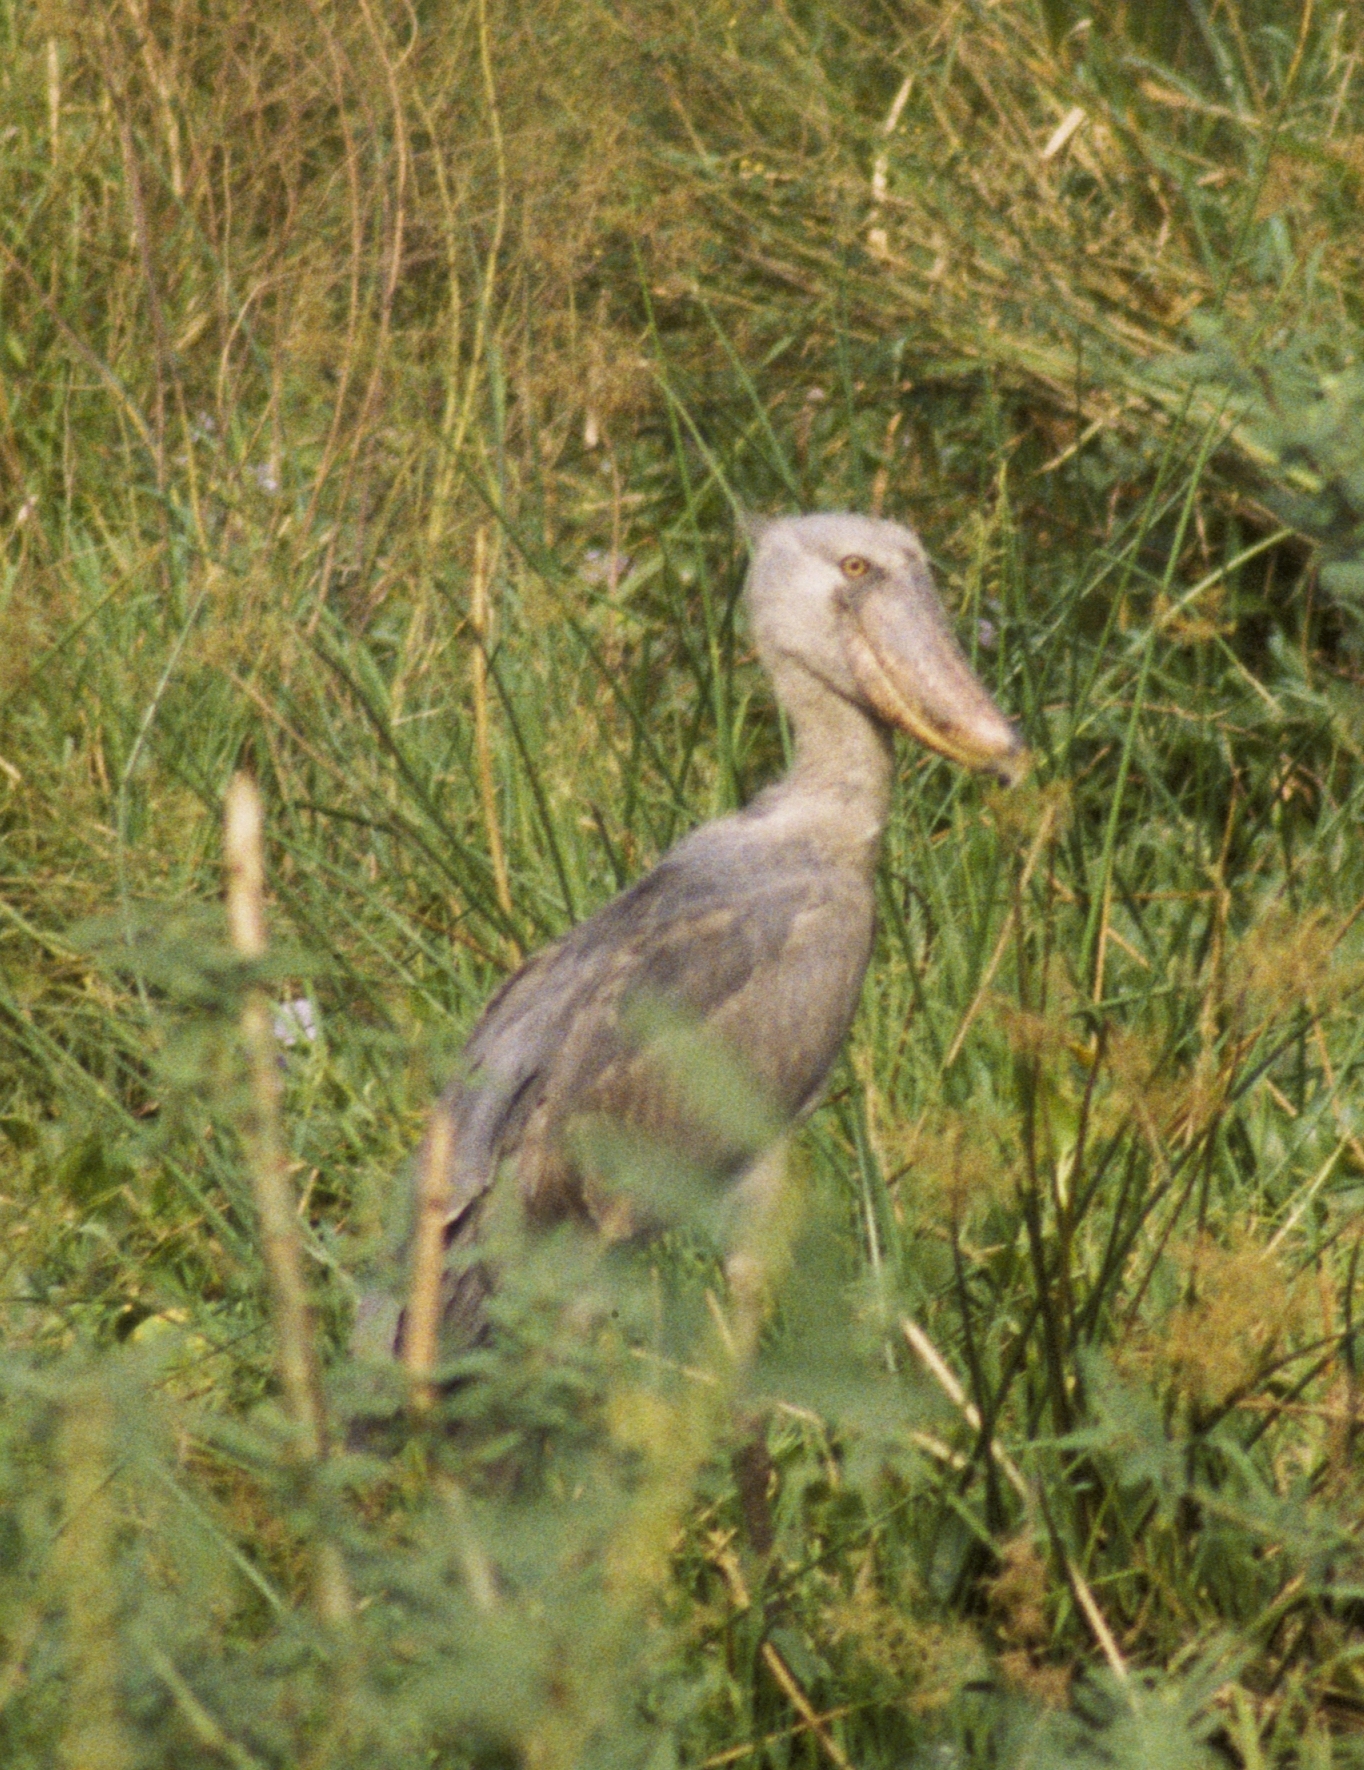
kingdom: Animalia
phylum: Chordata
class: Aves
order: Pelecaniformes
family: Balaenicipitidae
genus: Balaeniceps
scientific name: Balaeniceps rex
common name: Shoebill
